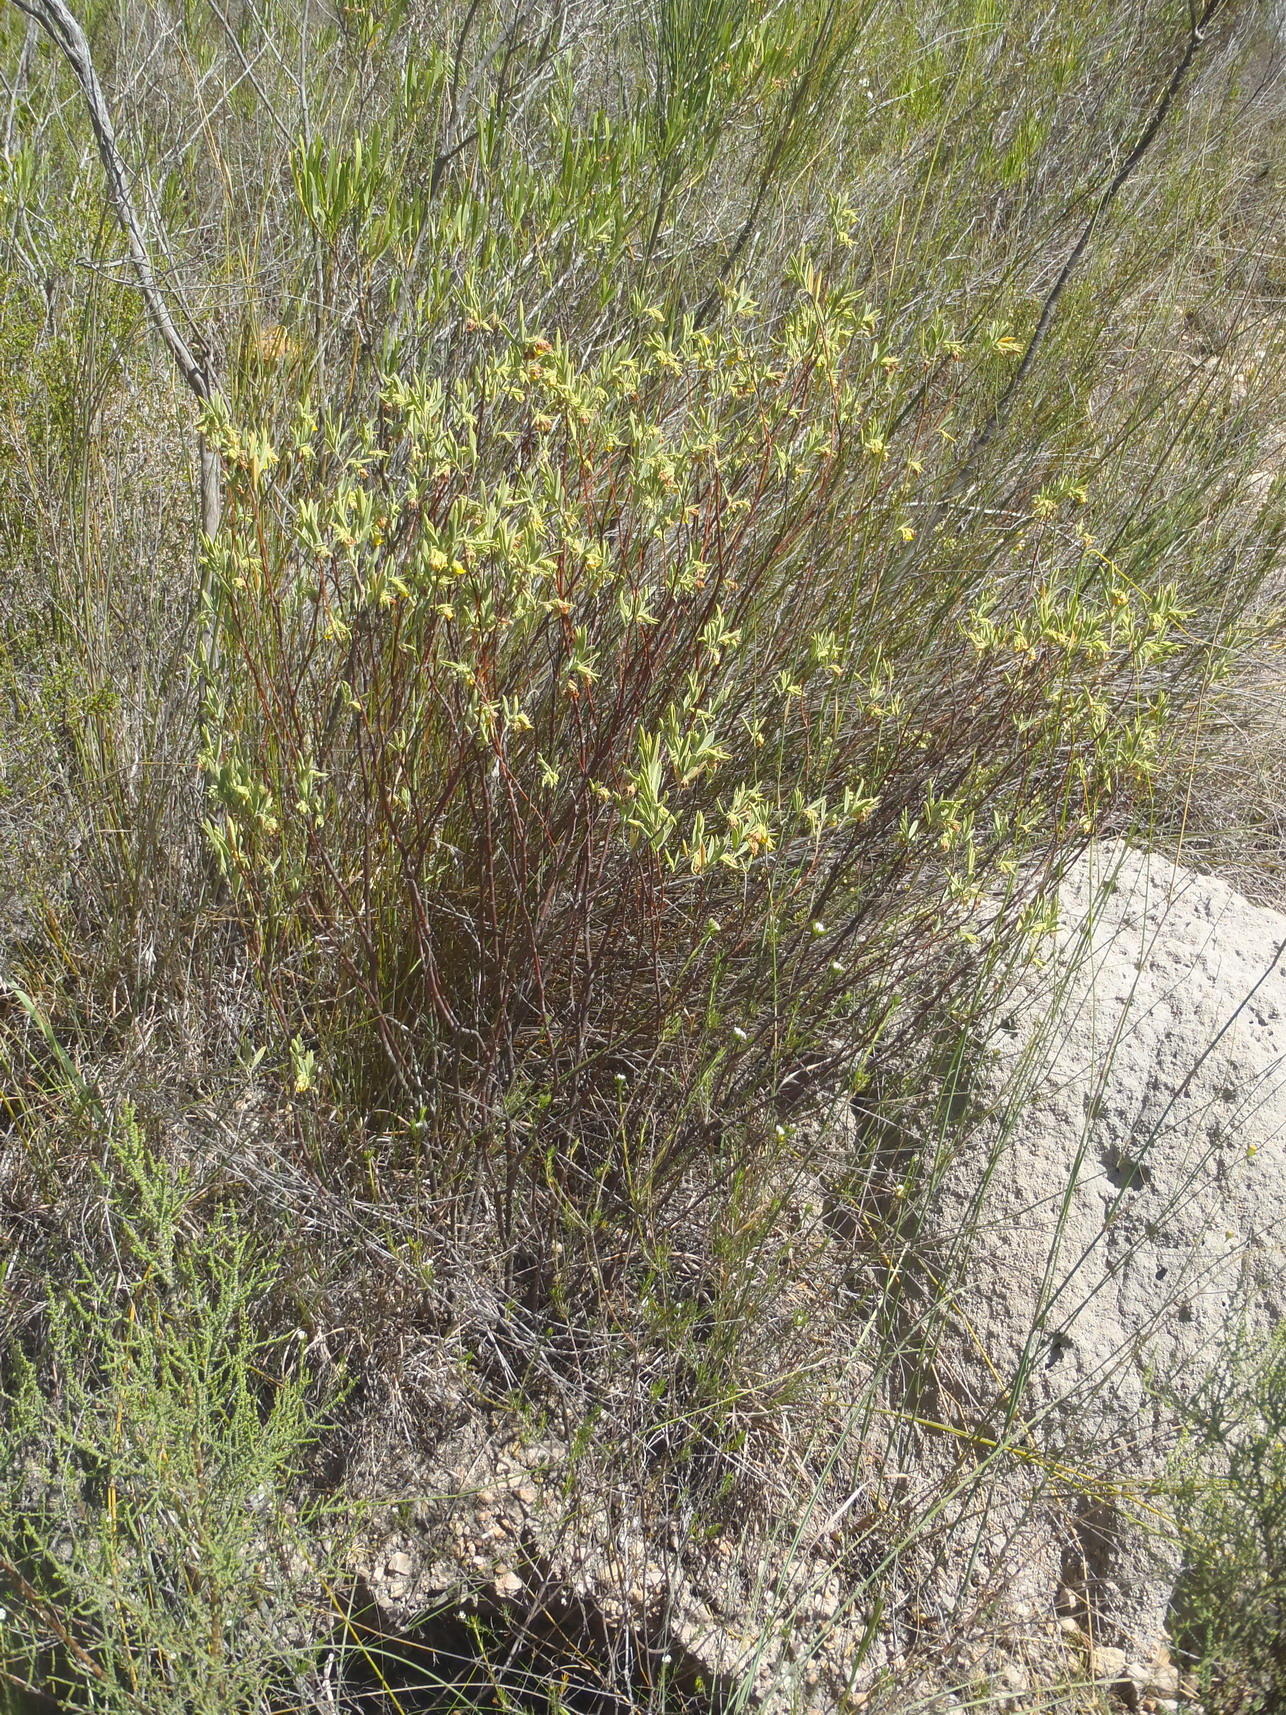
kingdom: Plantae
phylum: Tracheophyta
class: Magnoliopsida
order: Malvales
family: Malvaceae
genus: Hermannia
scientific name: Hermannia velutina
